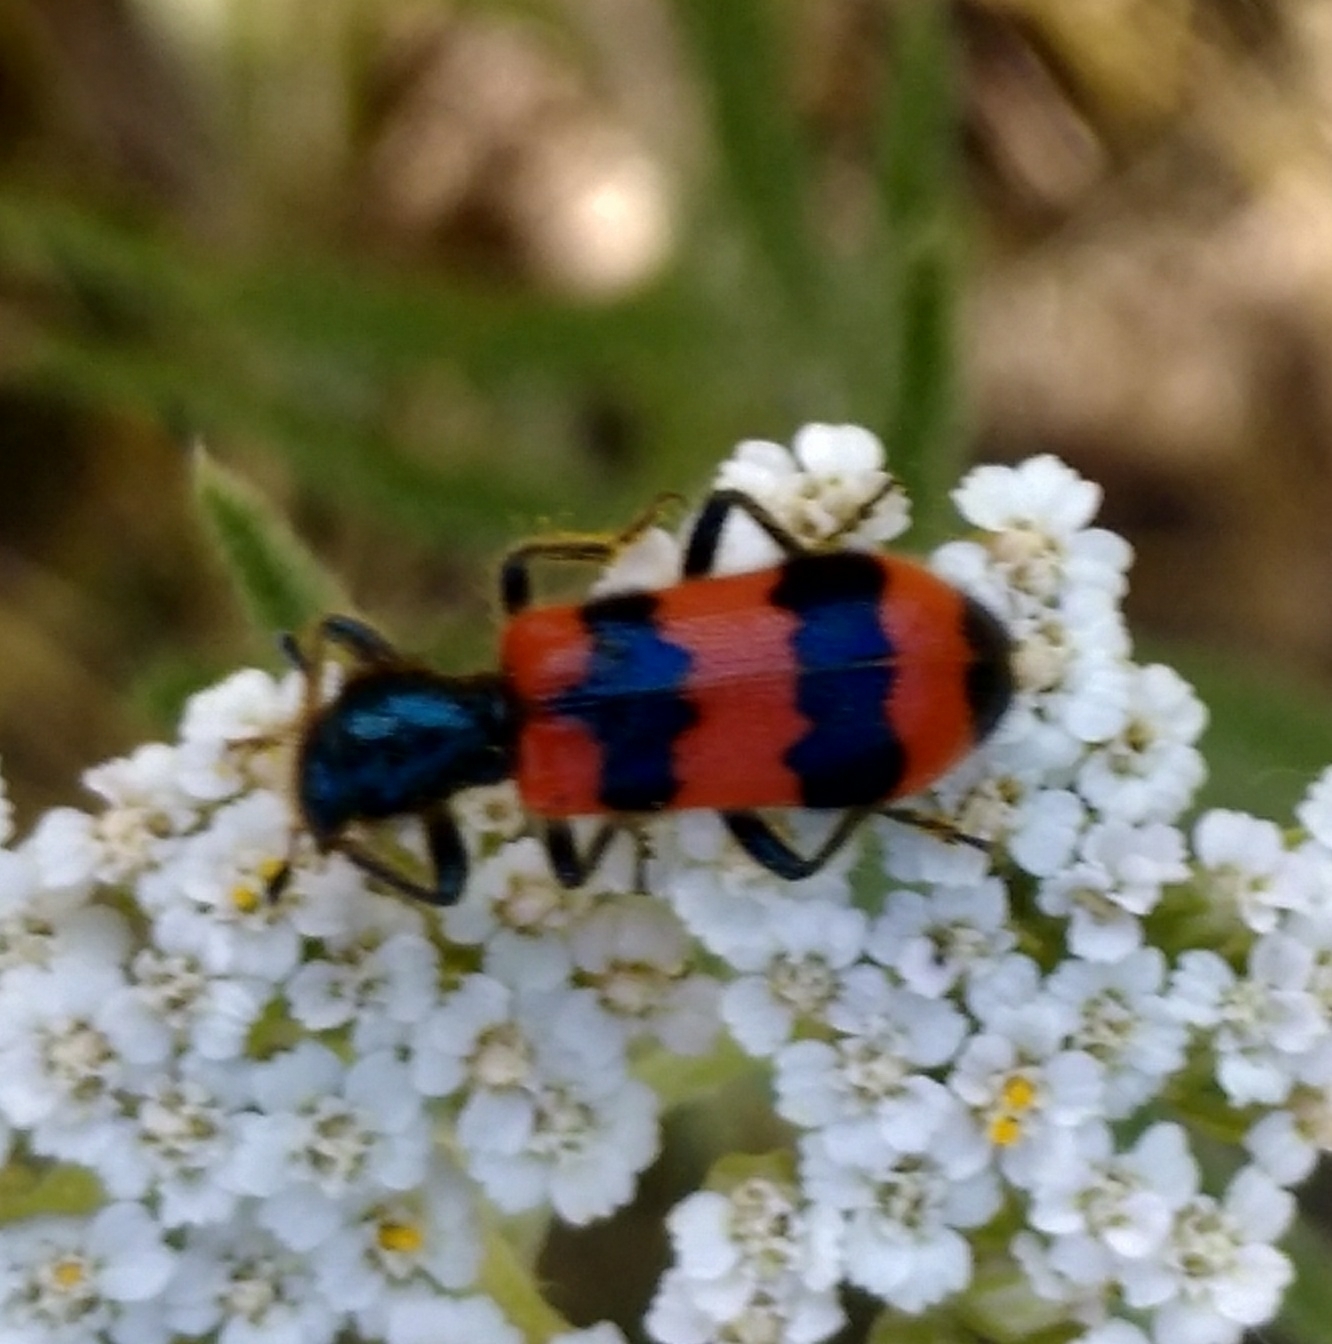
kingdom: Animalia
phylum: Arthropoda
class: Insecta
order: Coleoptera
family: Cleridae
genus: Trichodes
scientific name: Trichodes apiarius
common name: Bee-eating beetle
